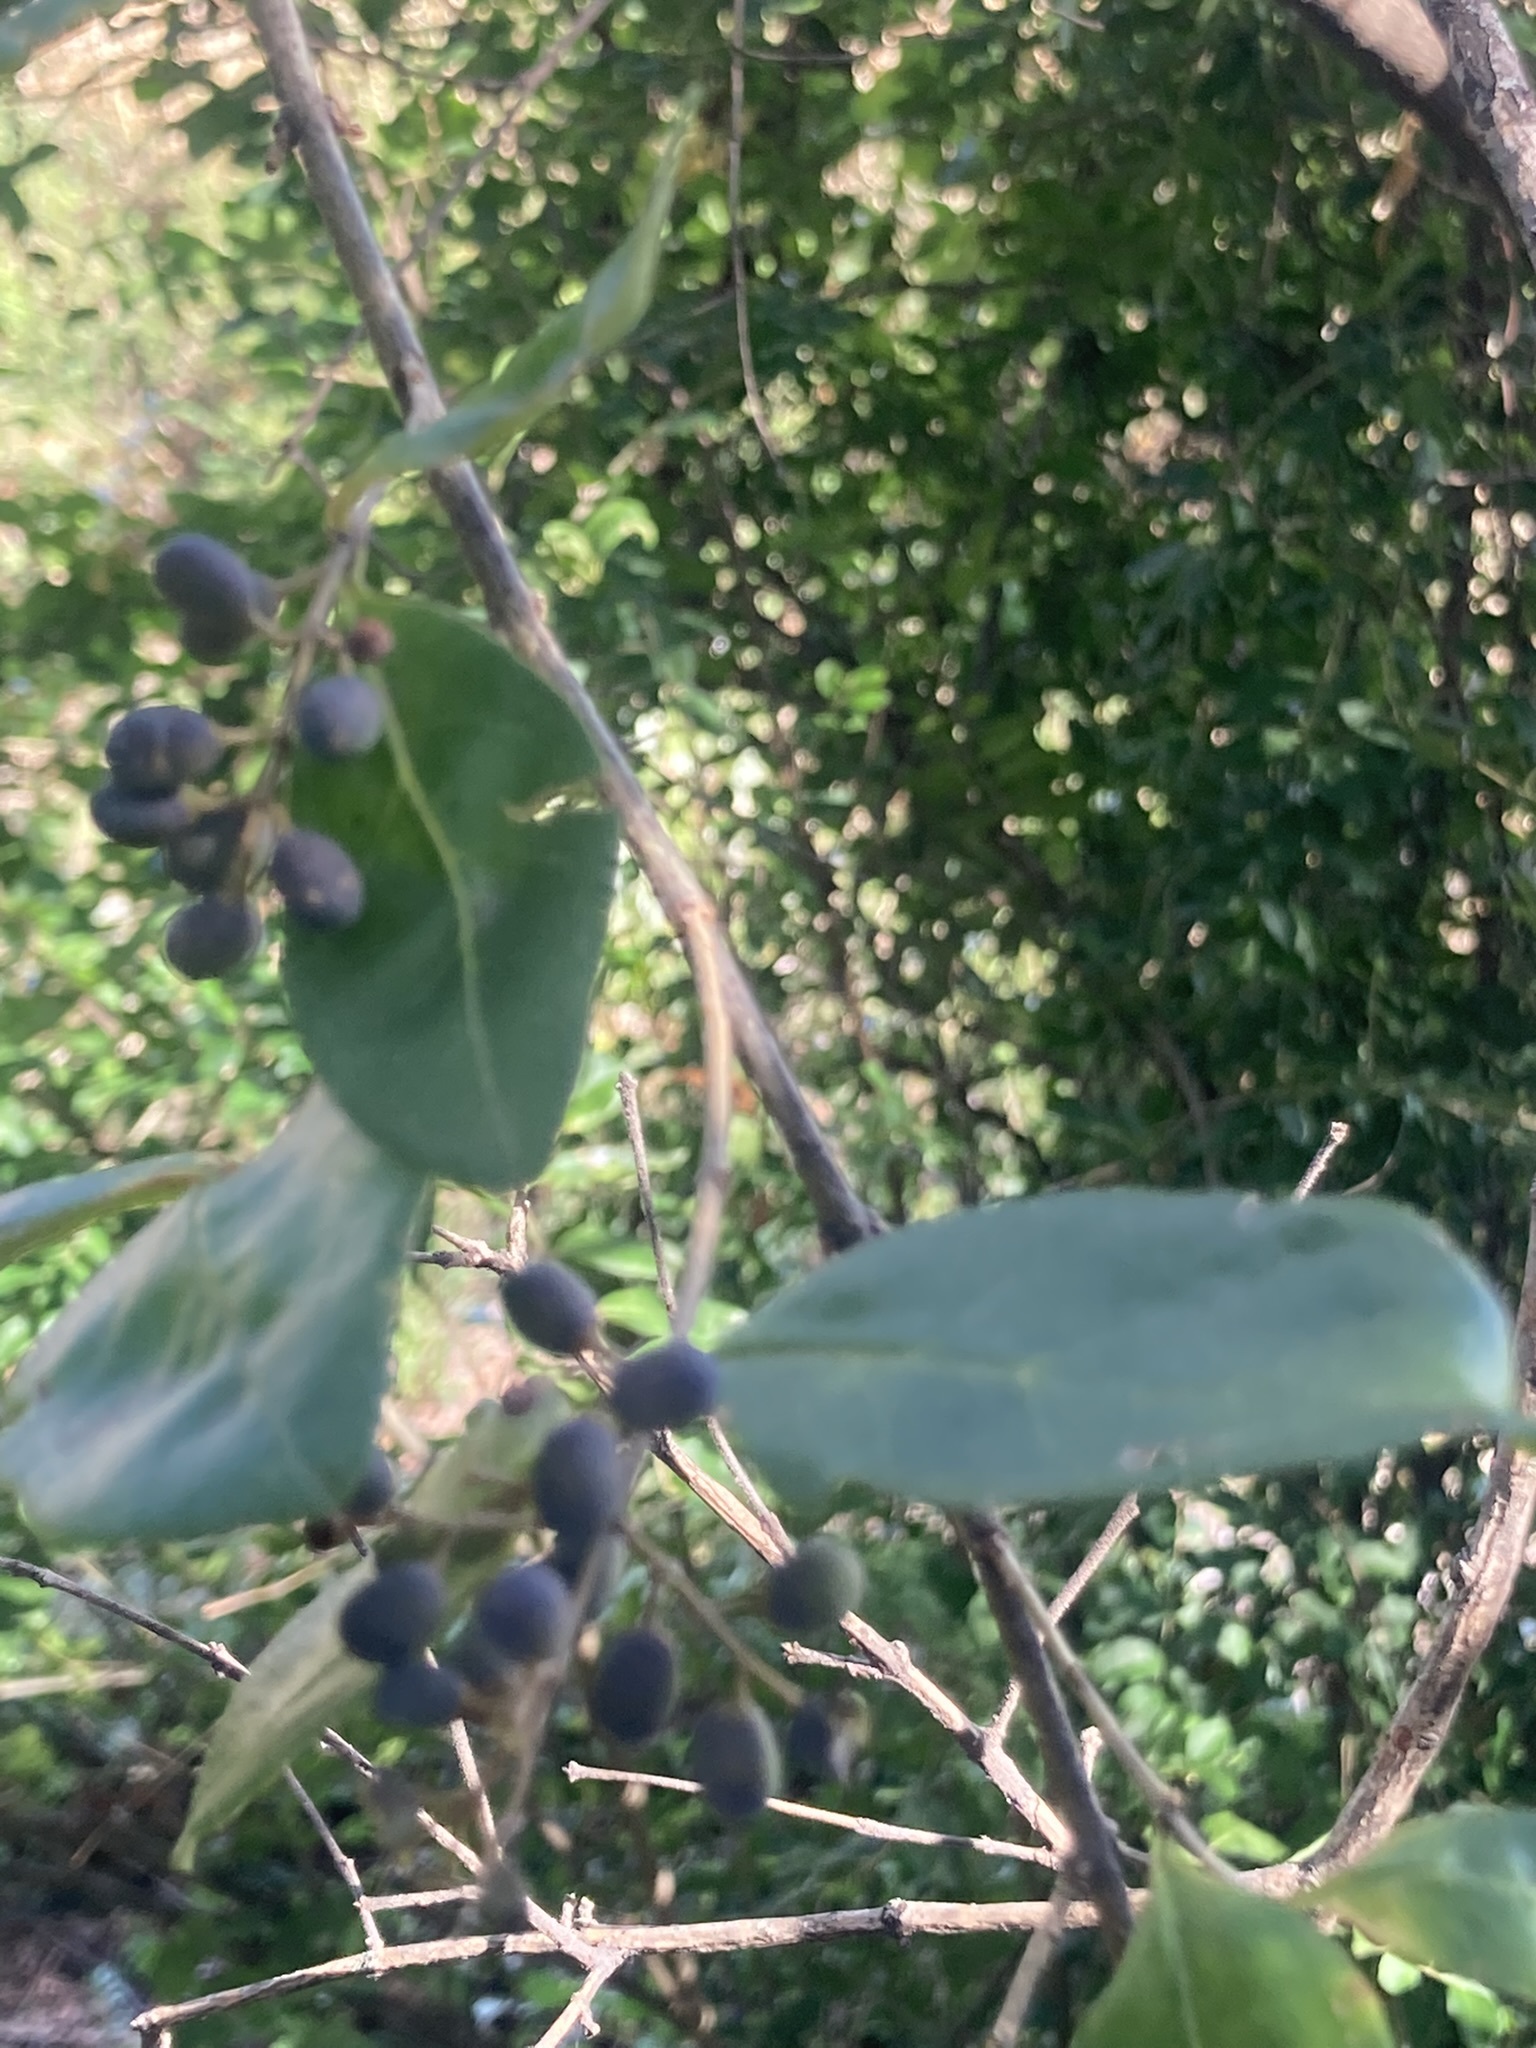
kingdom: Plantae
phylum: Tracheophyta
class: Magnoliopsida
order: Lamiales
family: Oleaceae
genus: Ligustrum
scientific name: Ligustrum sinense
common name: Chinese privet
